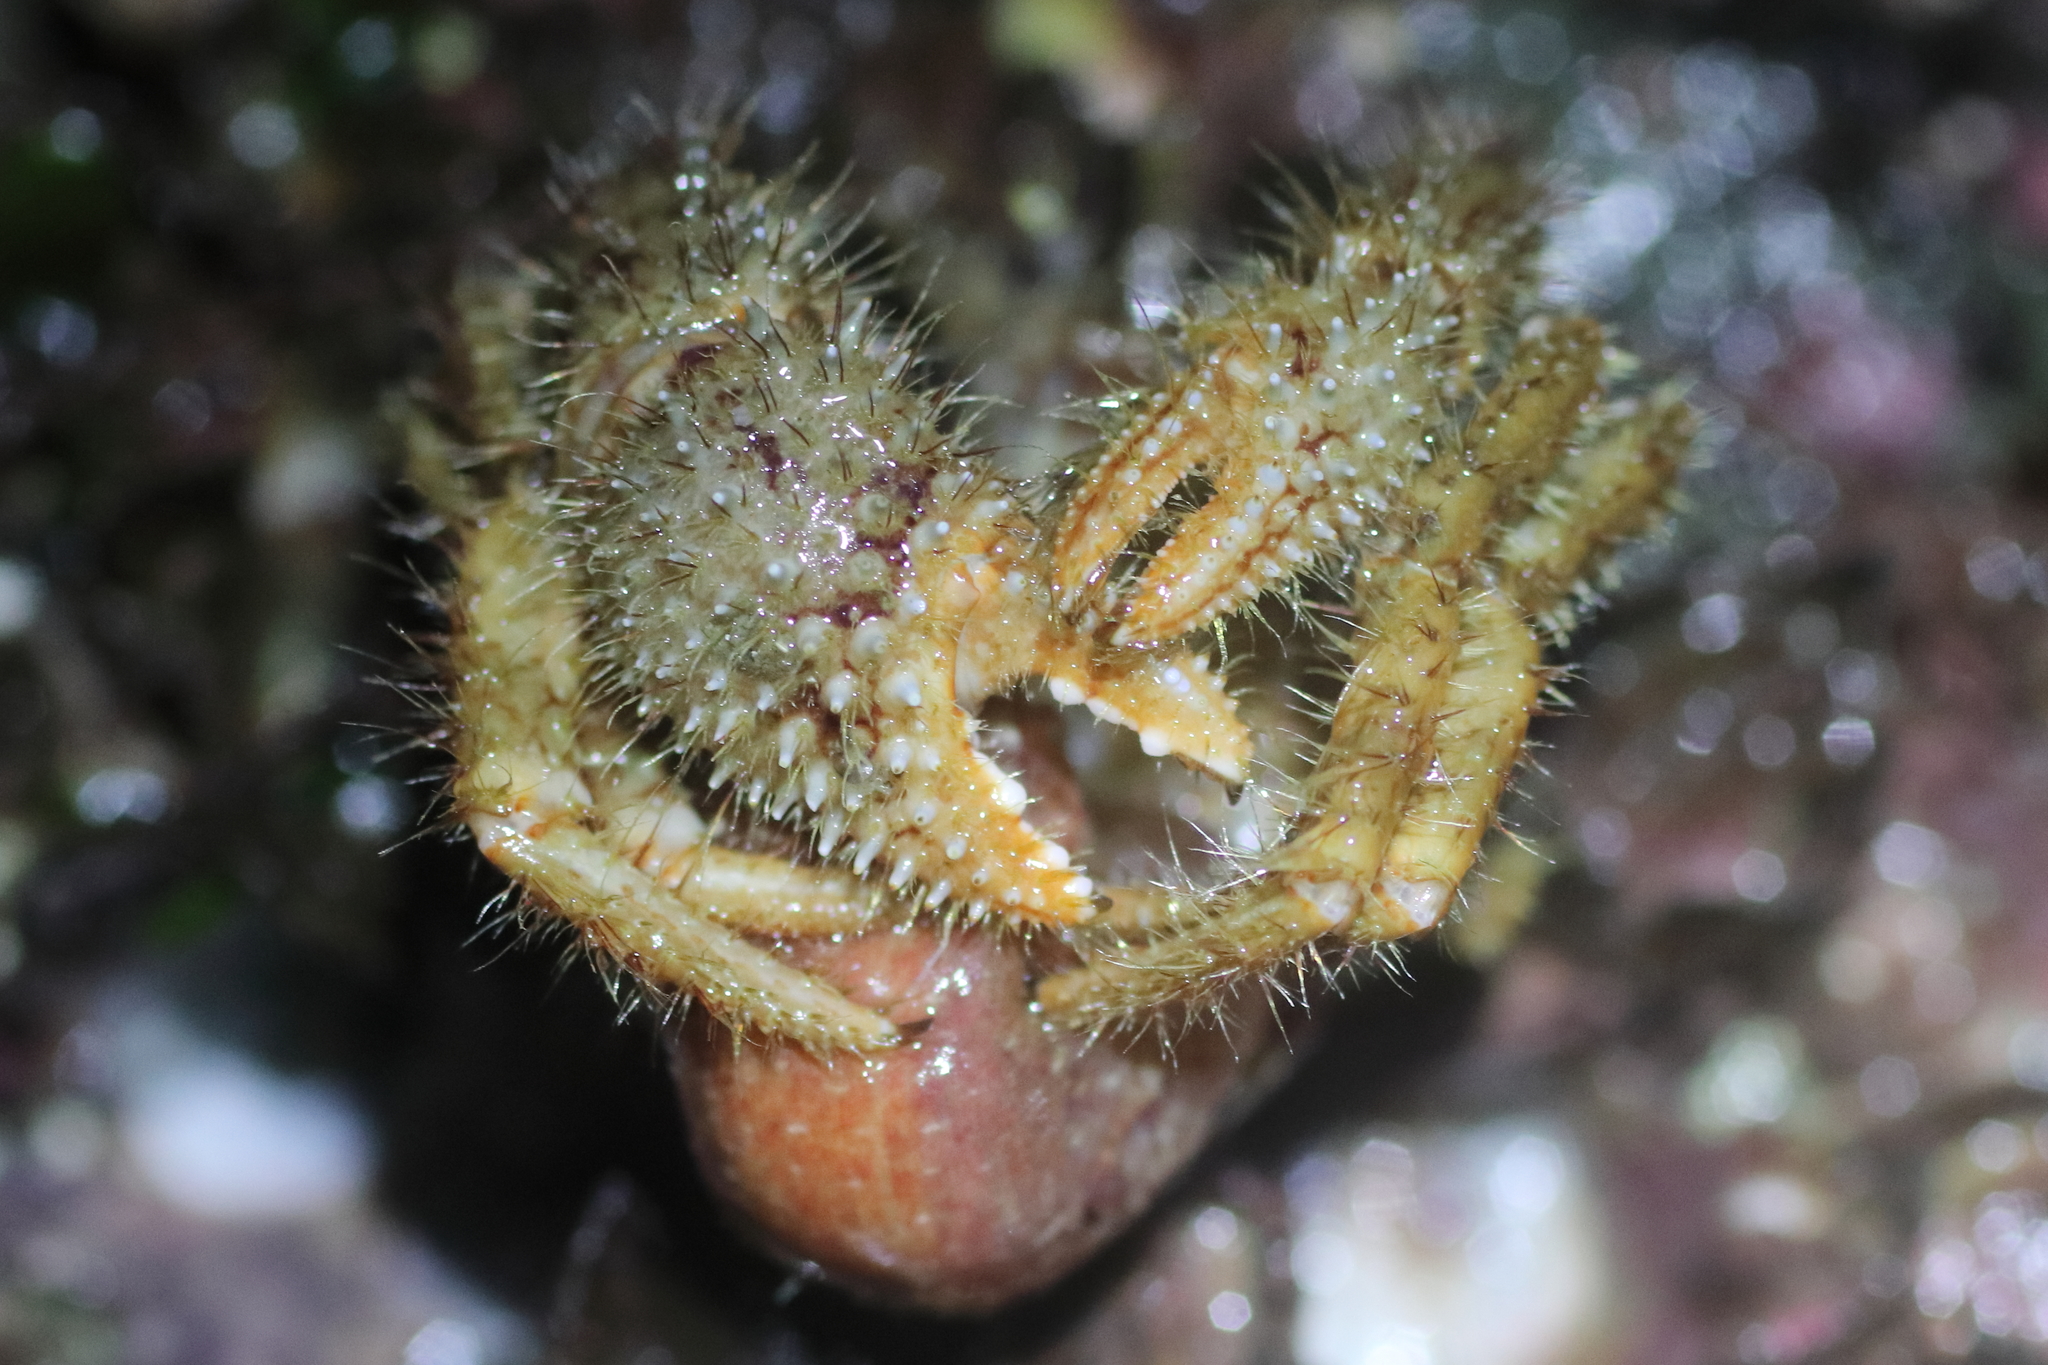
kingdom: Animalia
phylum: Arthropoda
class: Malacostraca
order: Decapoda
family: Paguridae
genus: Pagurus
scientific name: Pagurus kennerlyi
